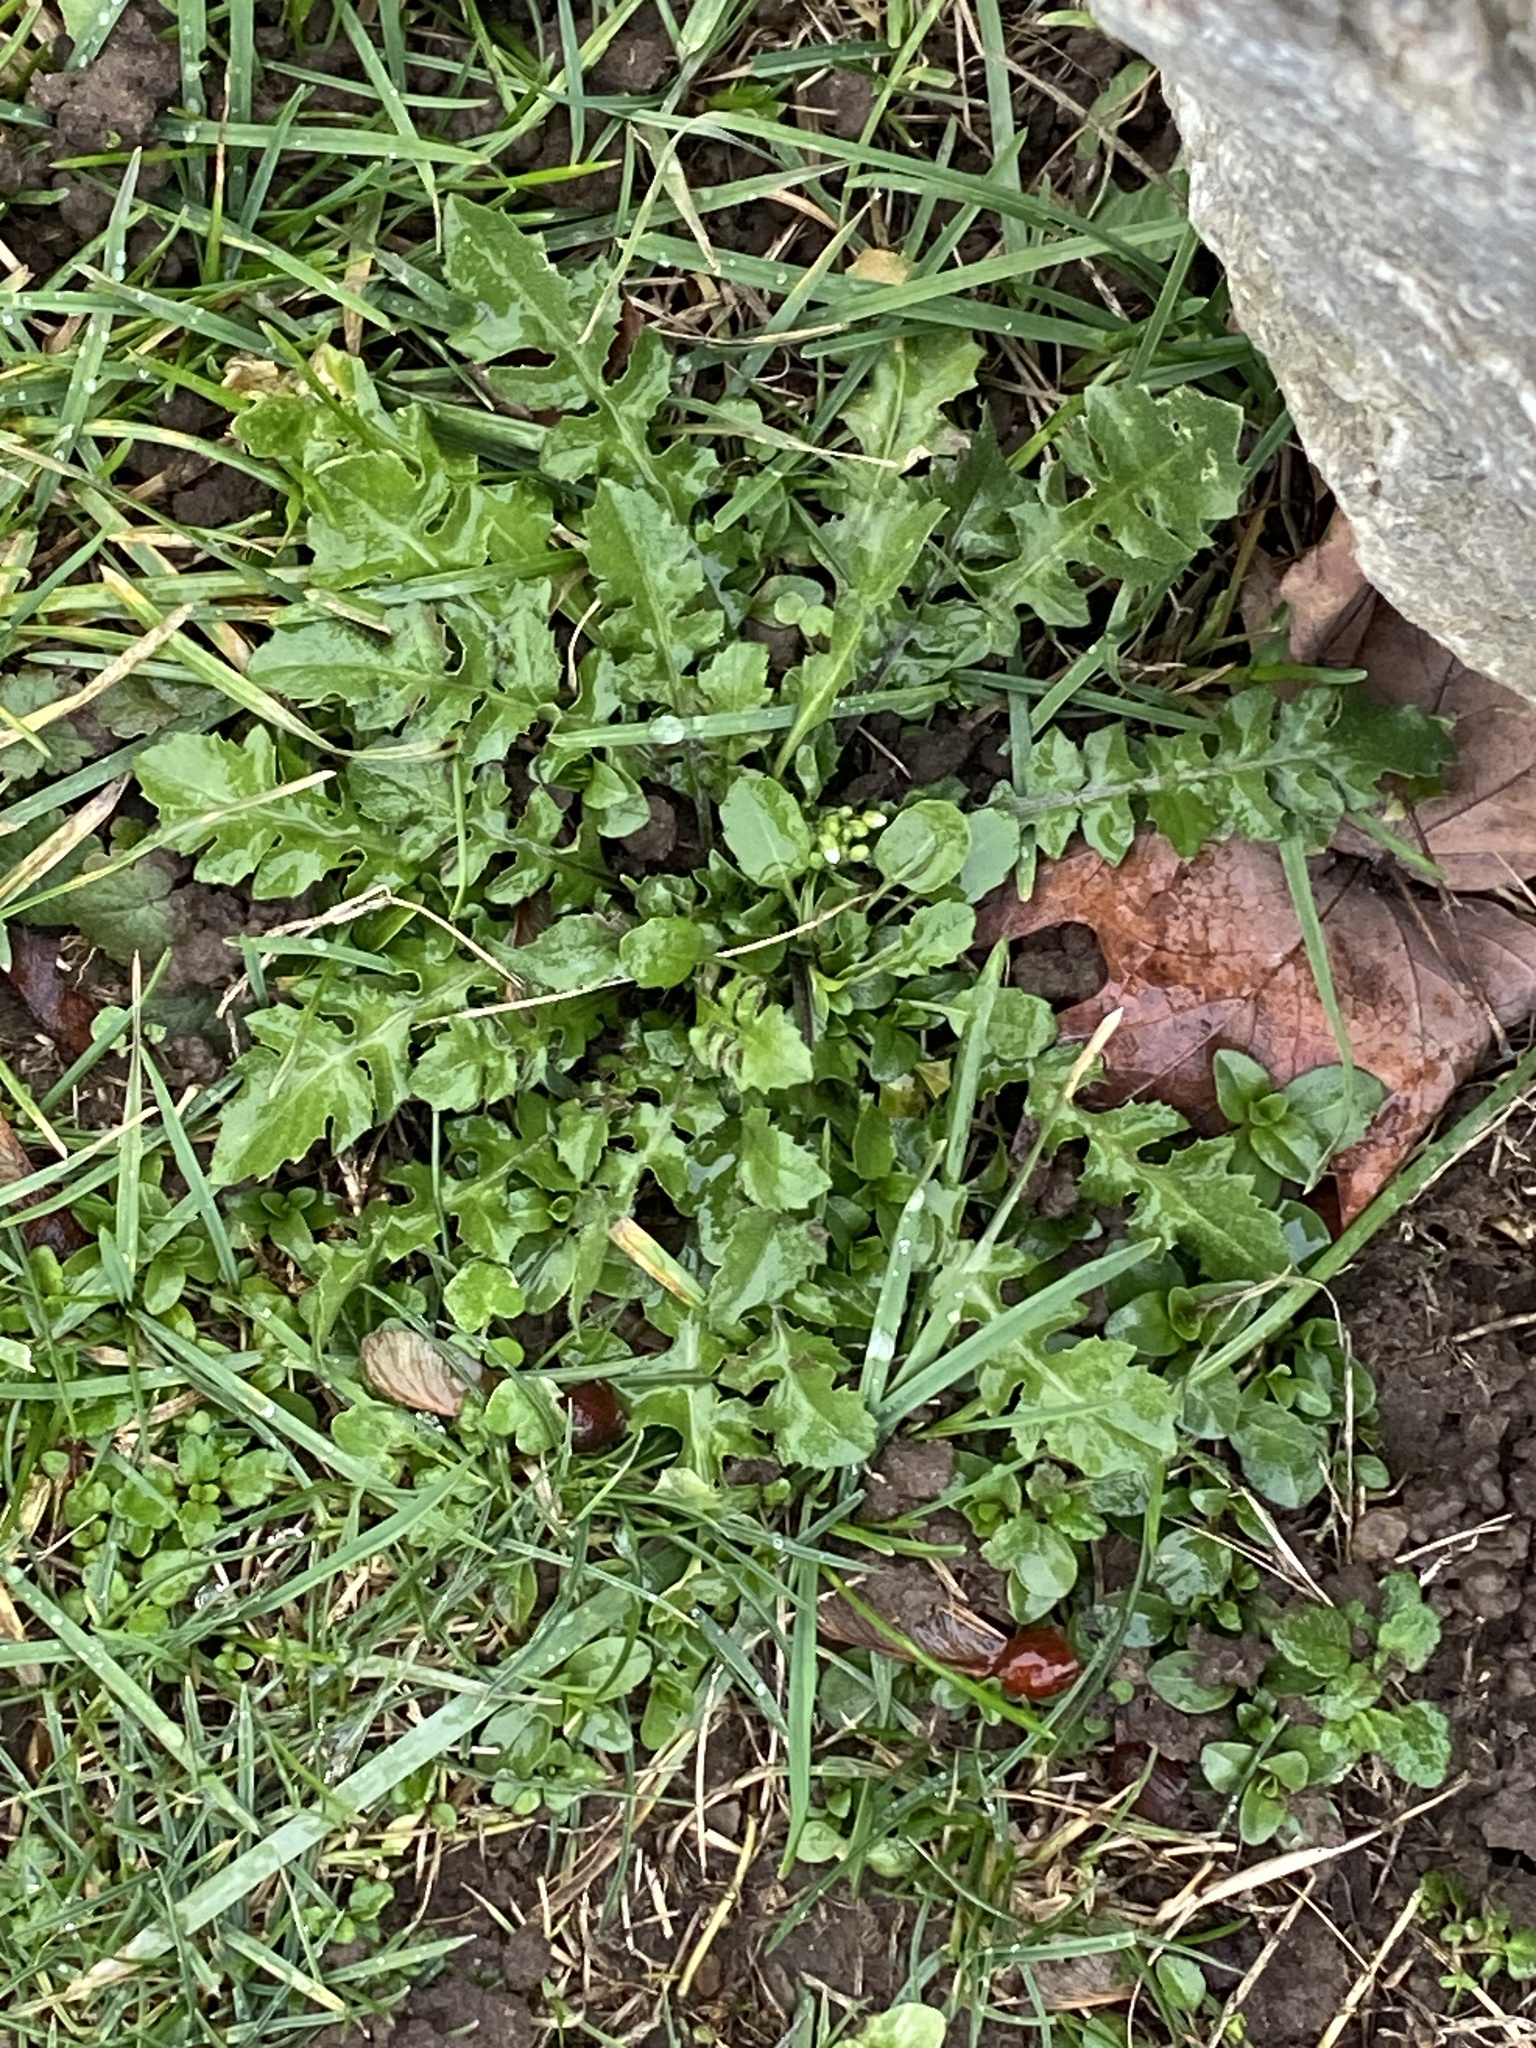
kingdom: Plantae
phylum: Tracheophyta
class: Magnoliopsida
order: Brassicales
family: Brassicaceae
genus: Capsella
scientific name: Capsella bursa-pastoris
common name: Shepherd's purse
